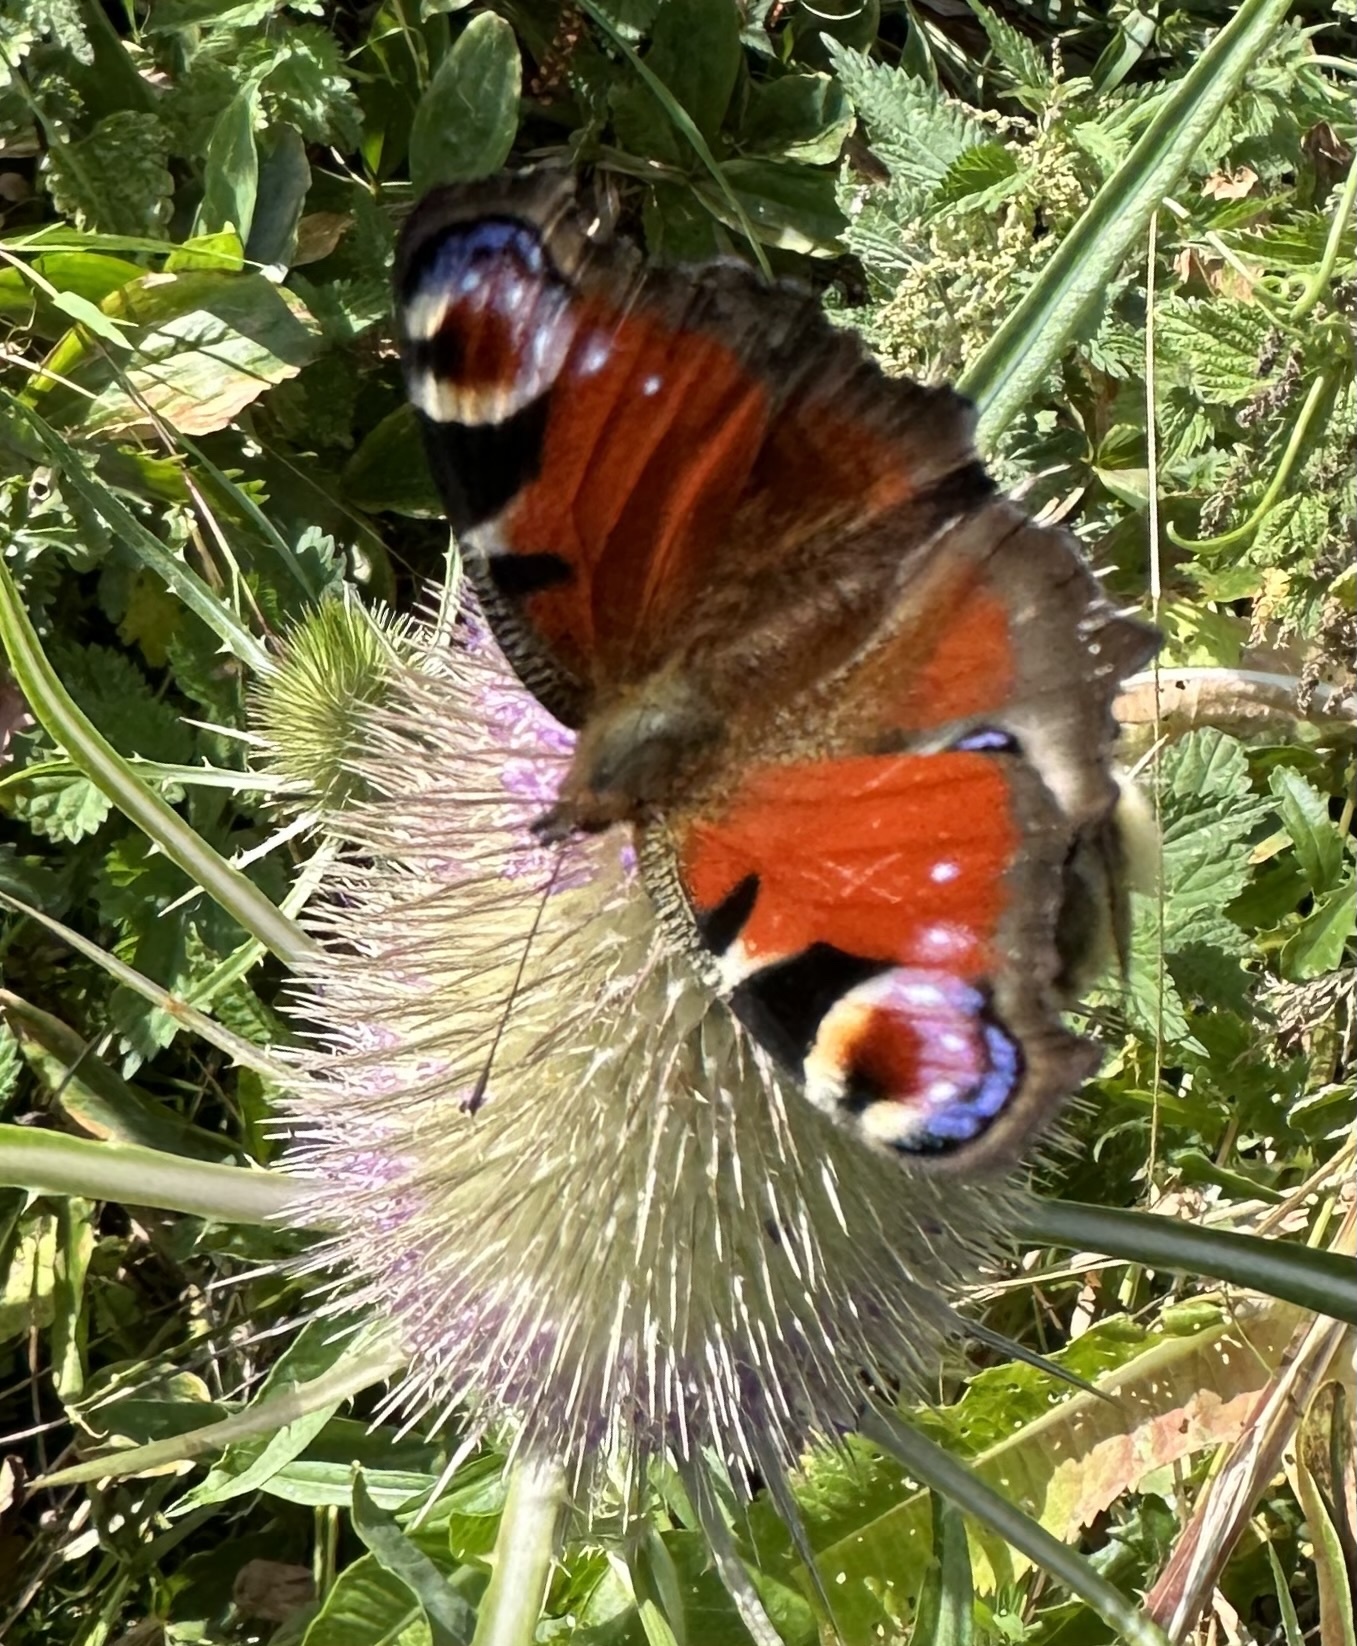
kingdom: Animalia
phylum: Arthropoda
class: Insecta
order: Lepidoptera
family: Nymphalidae
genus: Aglais
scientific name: Aglais io
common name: Peacock
